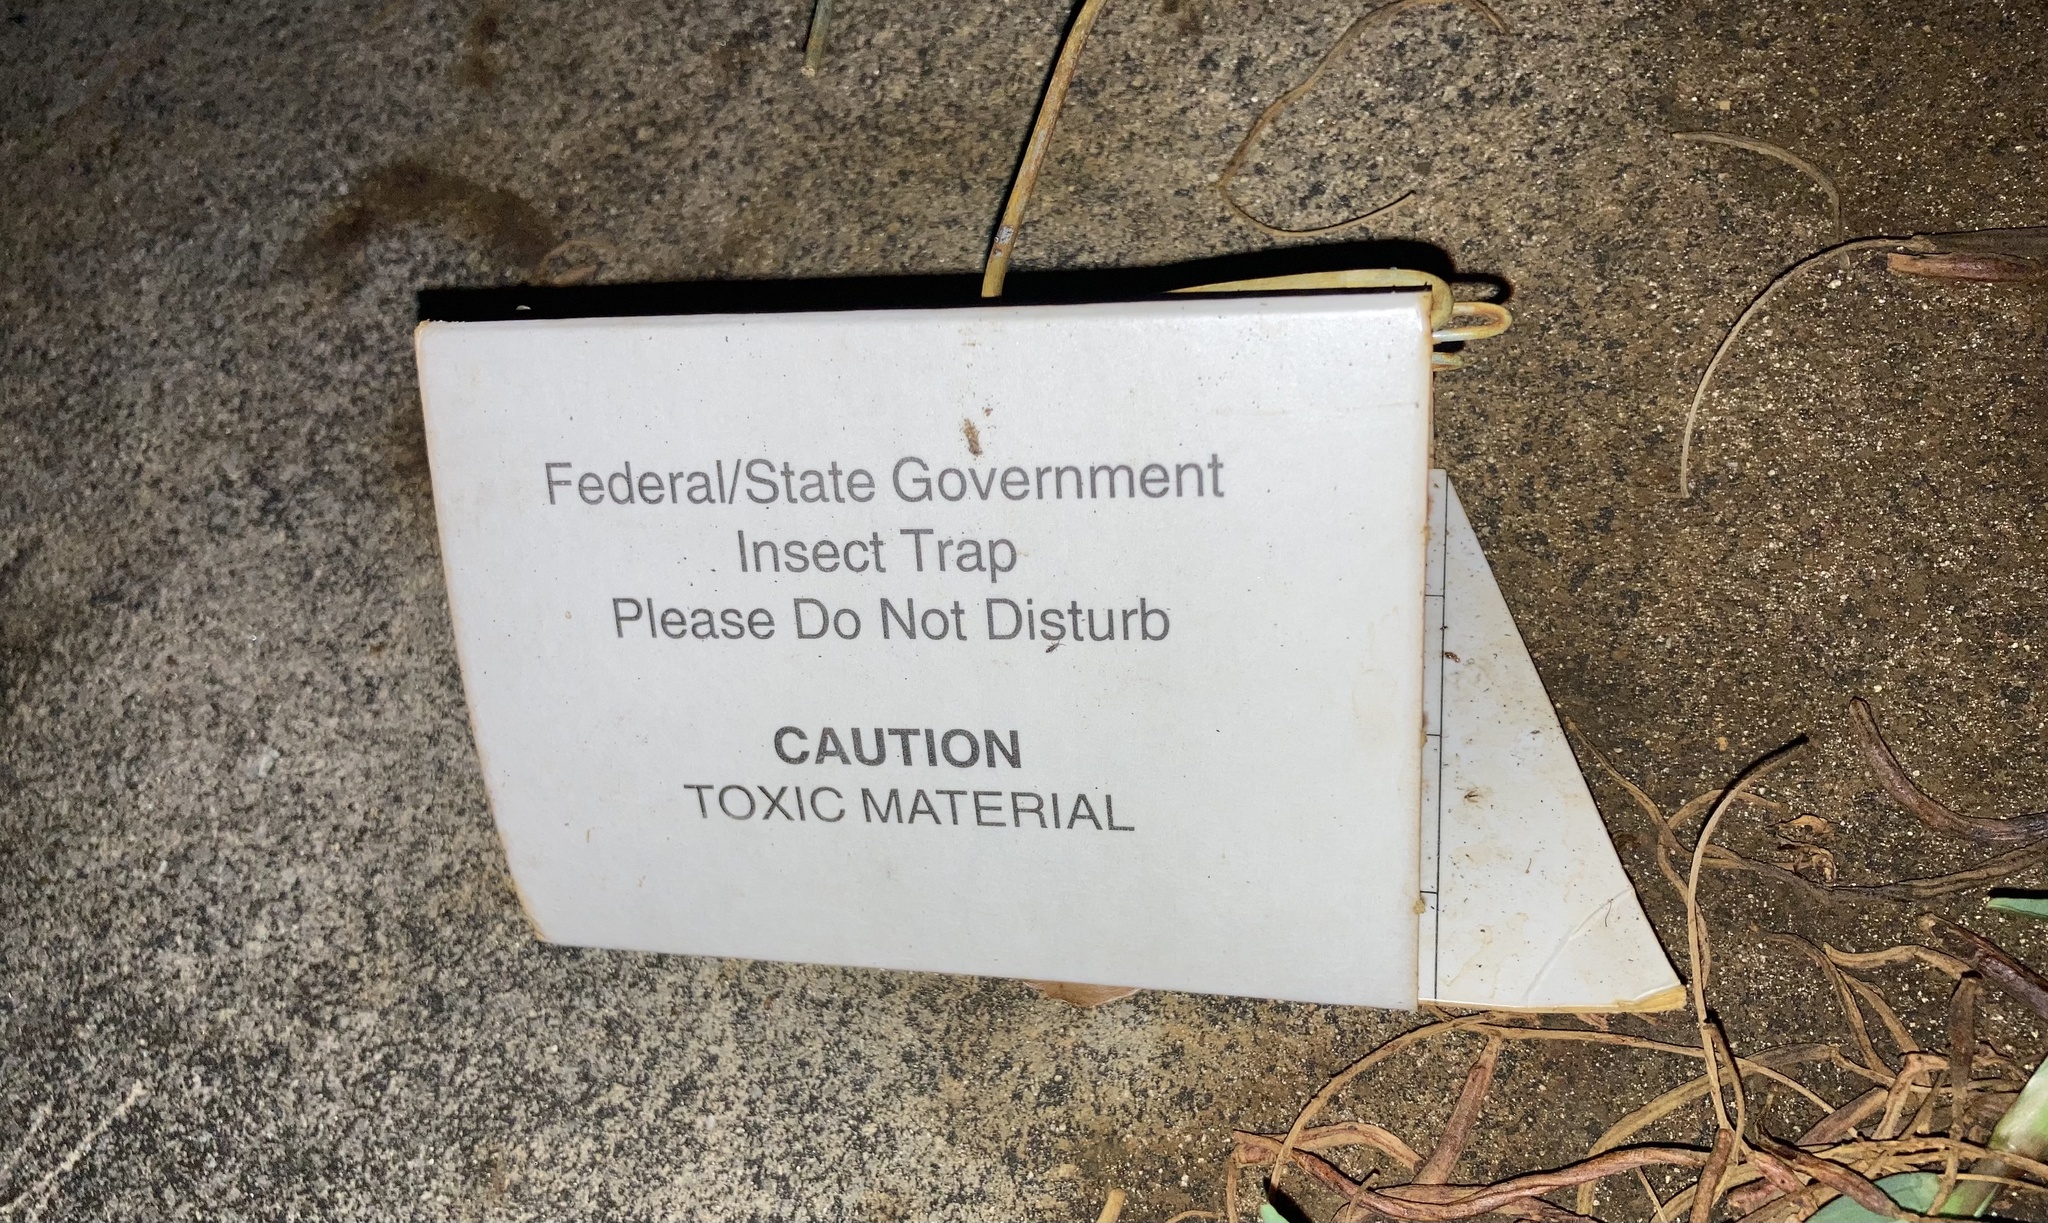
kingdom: Animalia
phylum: Arthropoda
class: Insecta
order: Hymenoptera
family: Formicidae
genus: Paratrechina
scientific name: Paratrechina longicornis
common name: Longhorned crazy ant
